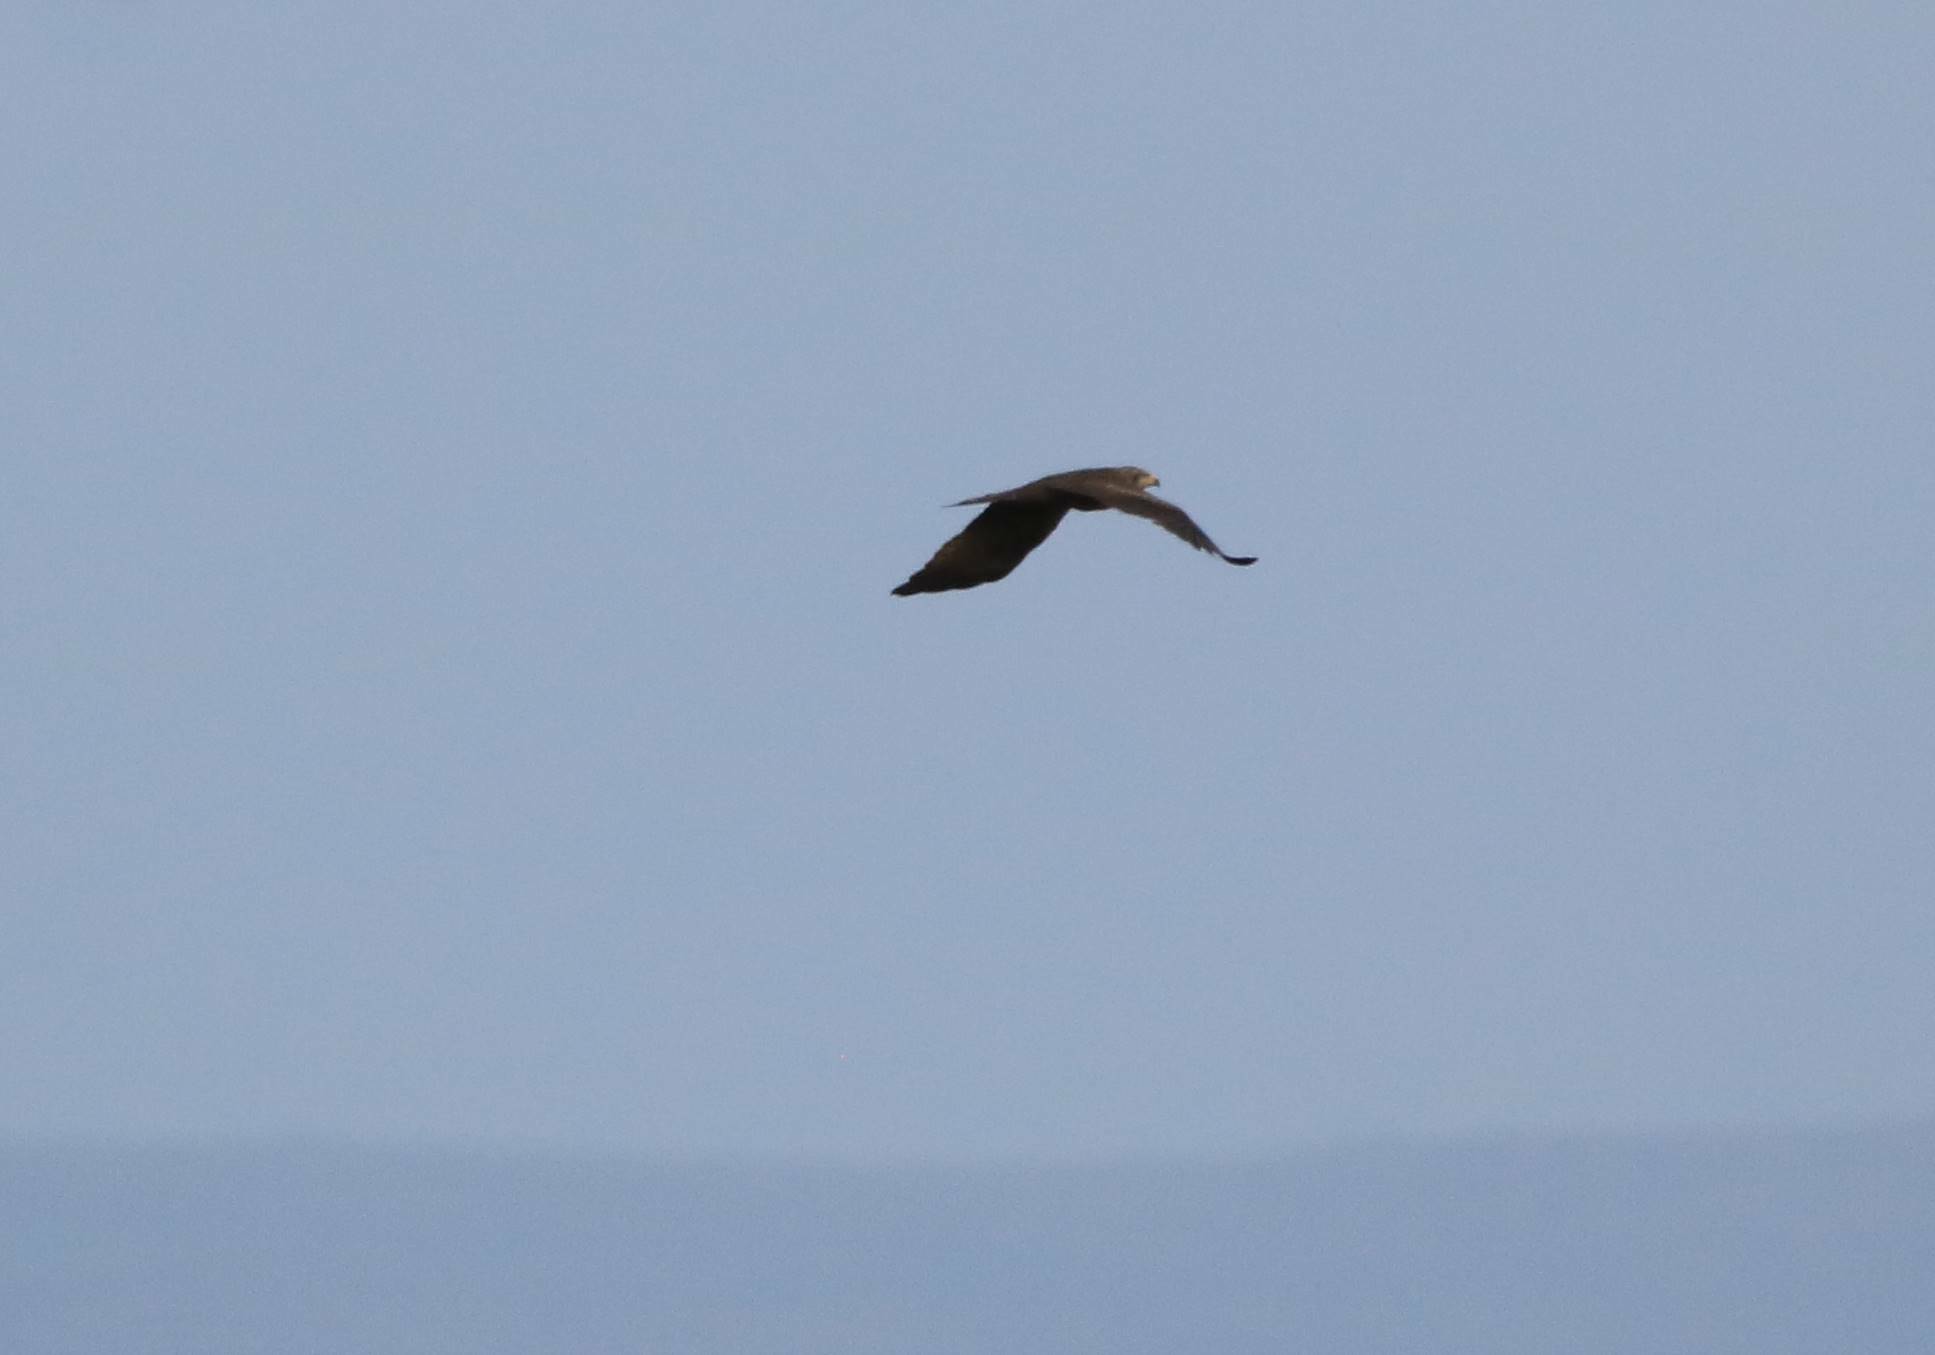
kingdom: Animalia
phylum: Chordata
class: Aves
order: Accipitriformes
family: Accipitridae
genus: Milvus
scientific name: Milvus migrans
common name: Black kite
